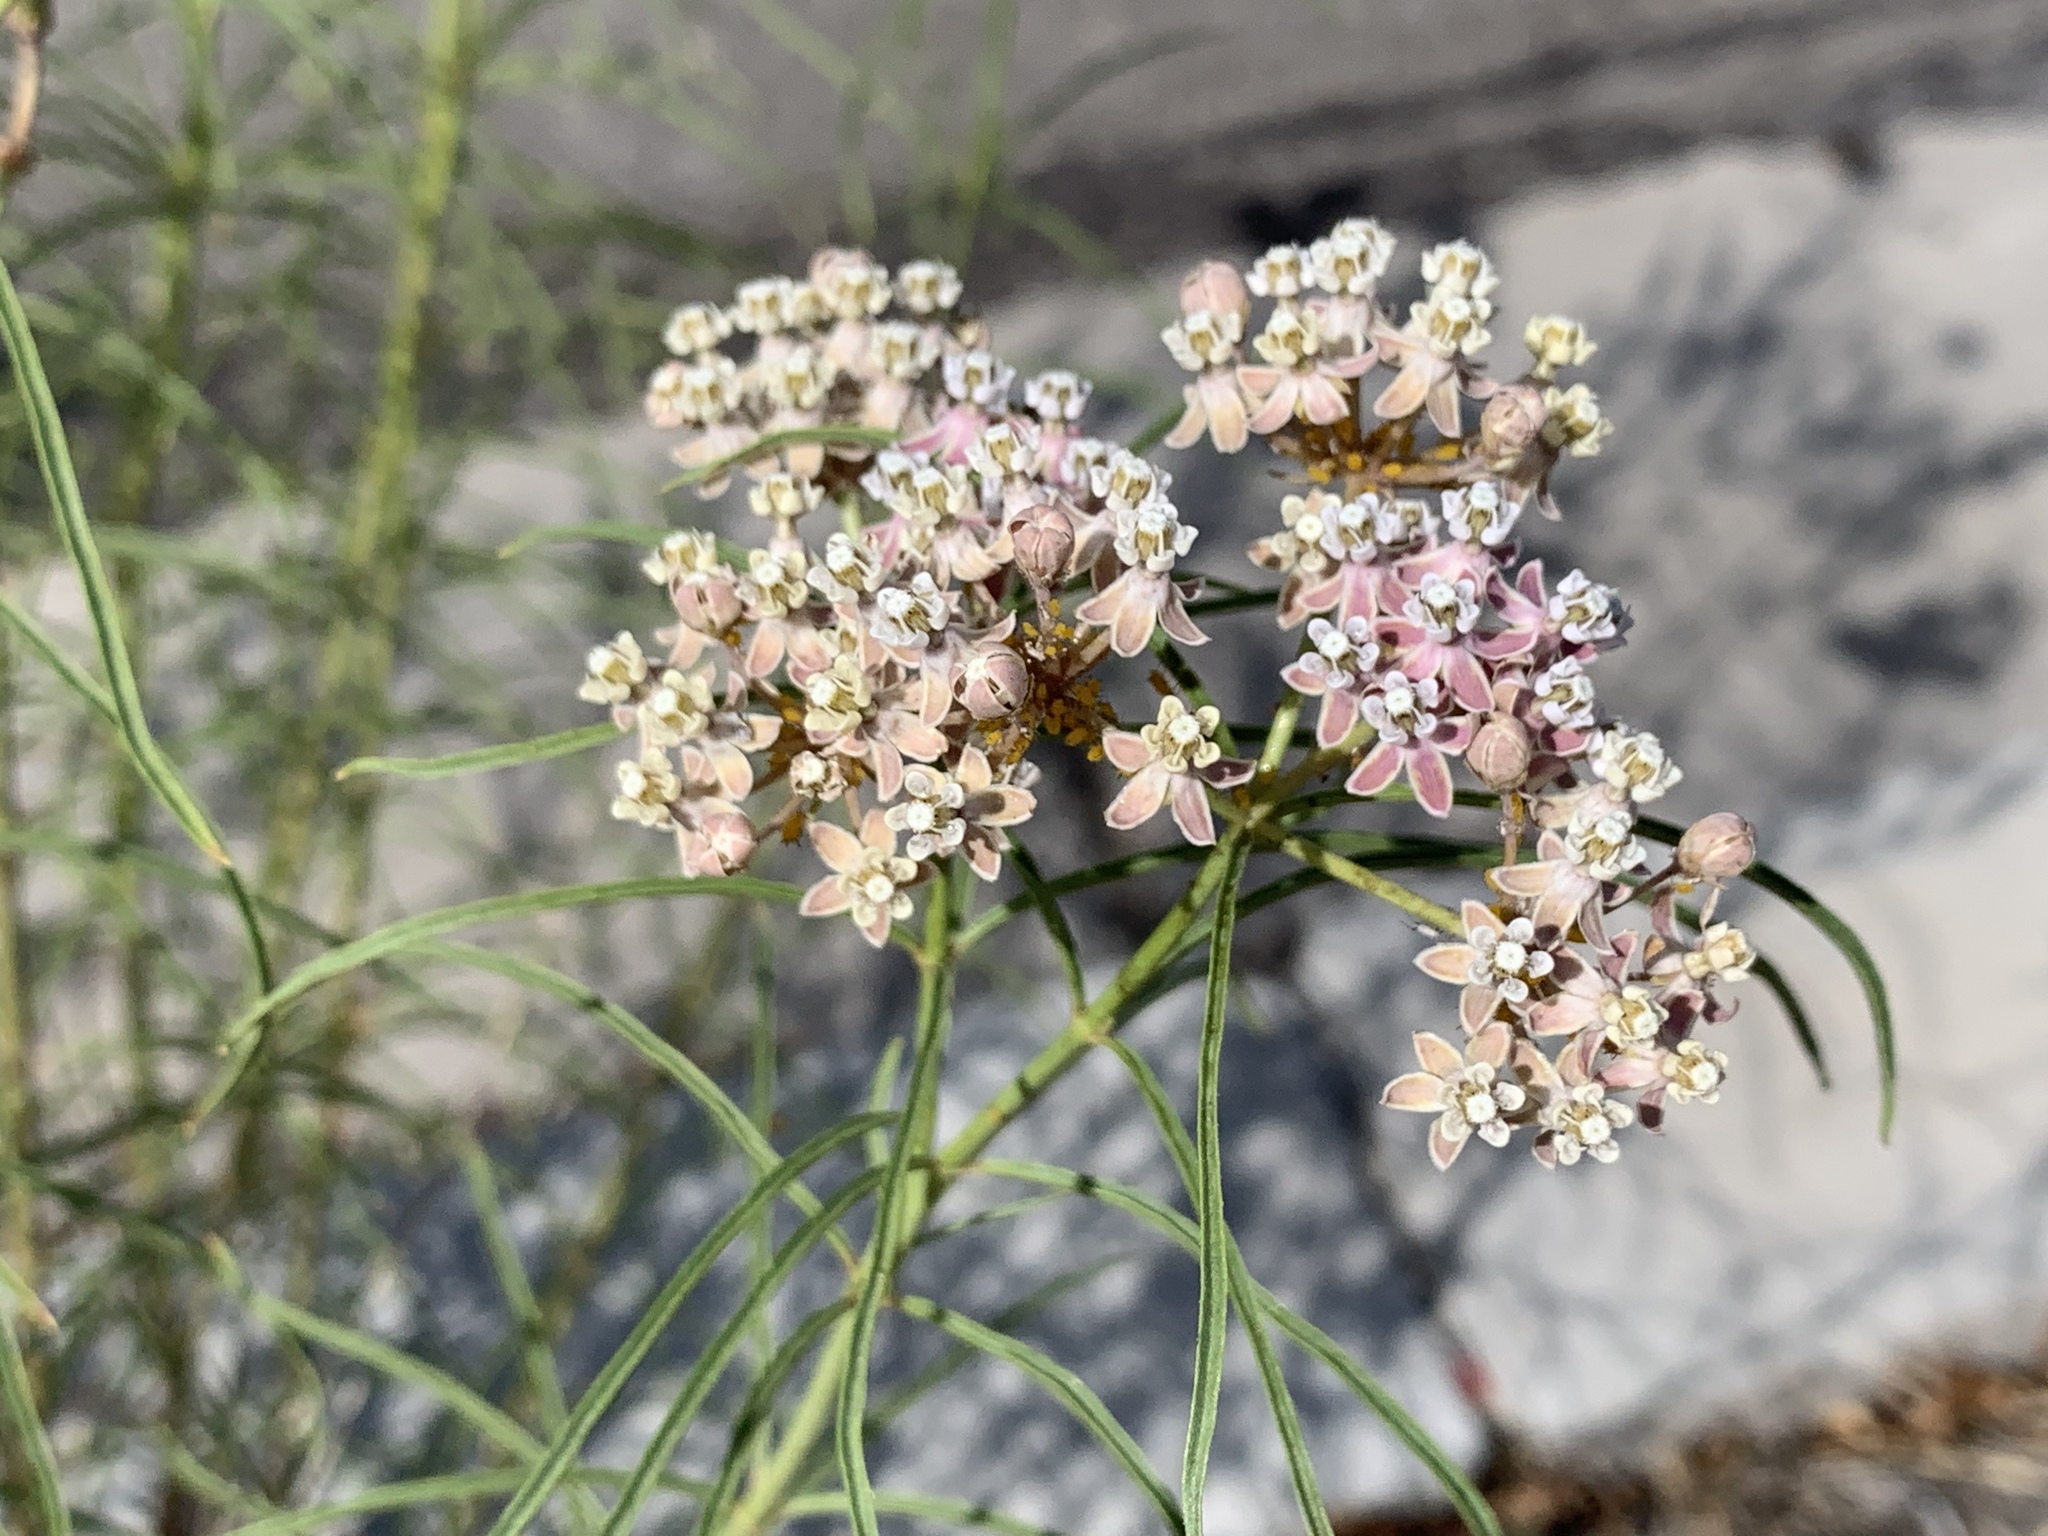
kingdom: Plantae
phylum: Tracheophyta
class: Magnoliopsida
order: Gentianales
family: Apocynaceae
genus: Asclepias
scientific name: Asclepias fascicularis
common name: Mexican milkweed
